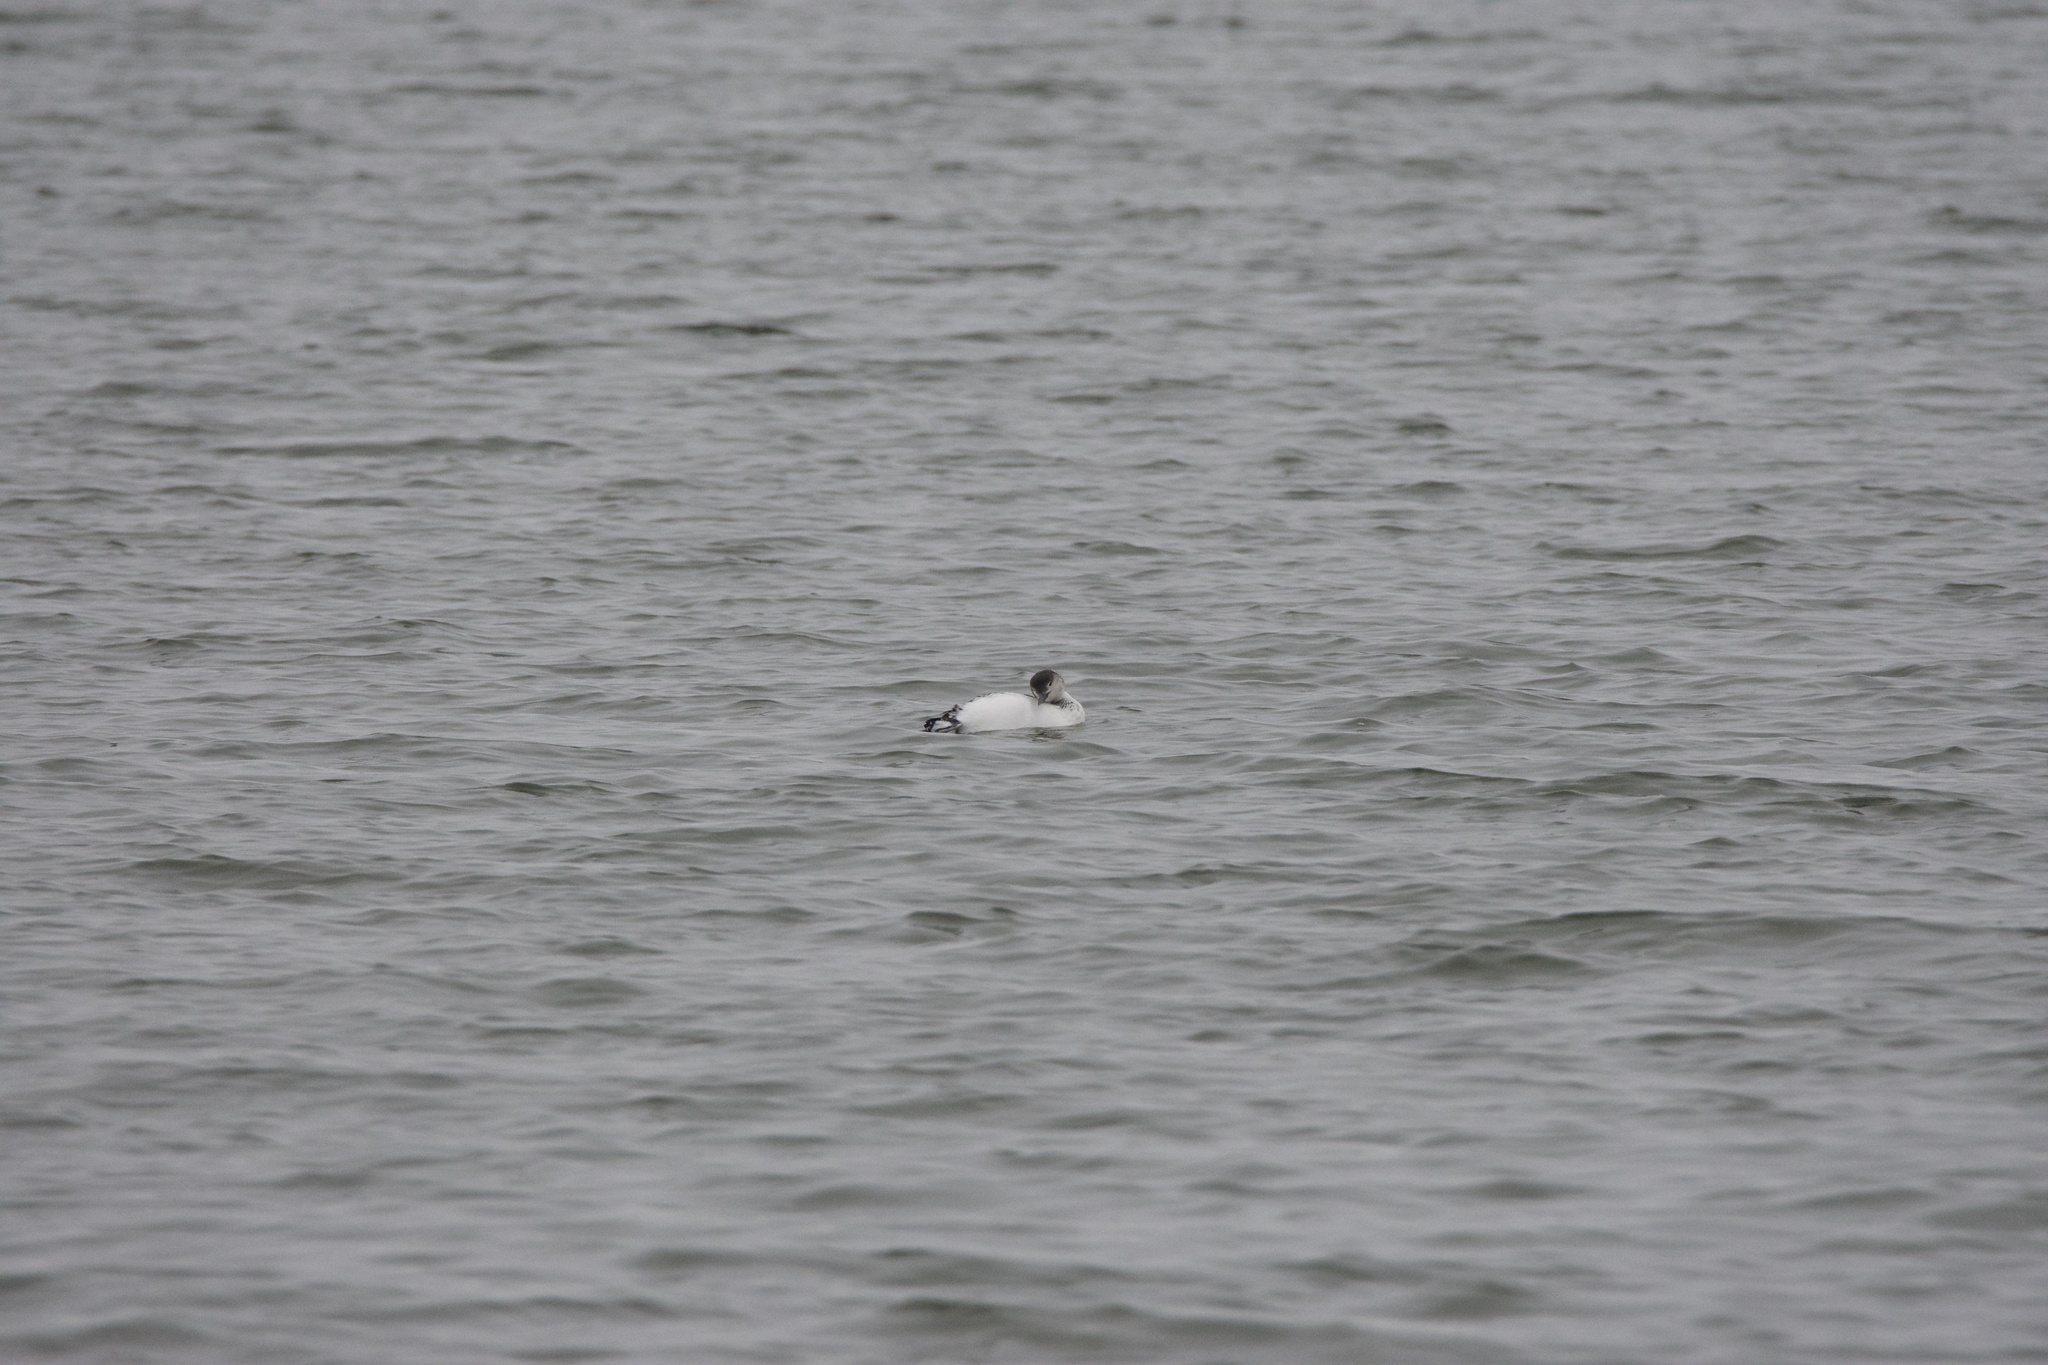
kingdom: Animalia
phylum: Chordata
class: Aves
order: Gaviiformes
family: Gaviidae
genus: Gavia
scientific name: Gavia immer
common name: Common loon
